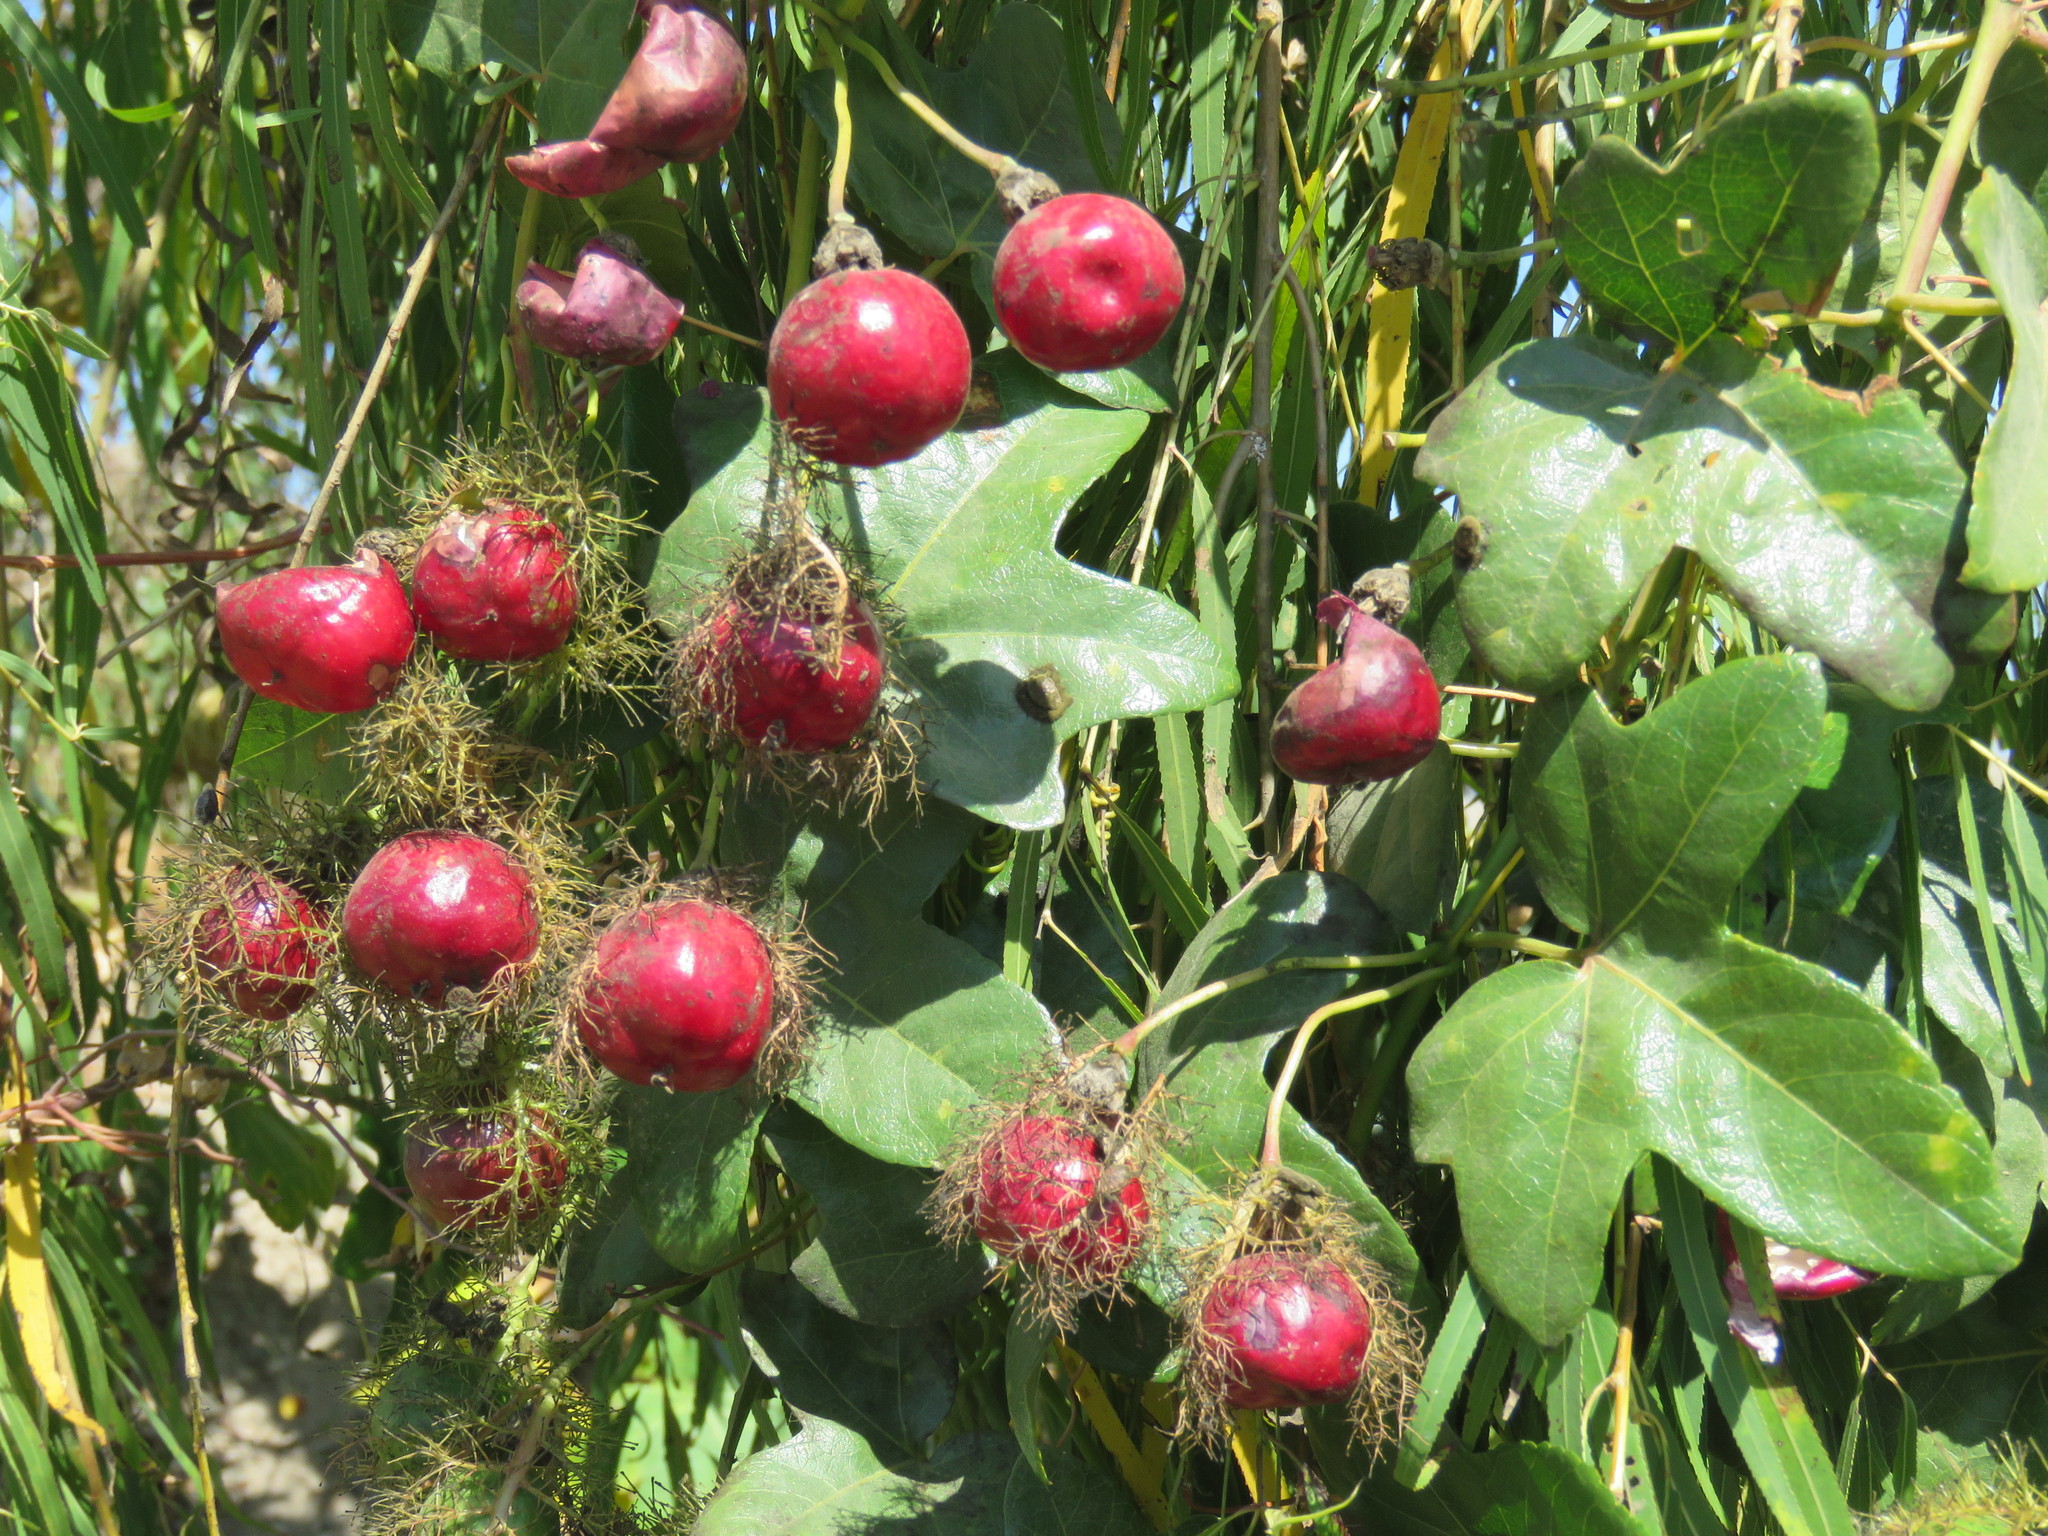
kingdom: Plantae
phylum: Tracheophyta
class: Magnoliopsida
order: Malpighiales
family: Passifloraceae
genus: Passiflora
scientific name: Passiflora ciliata
